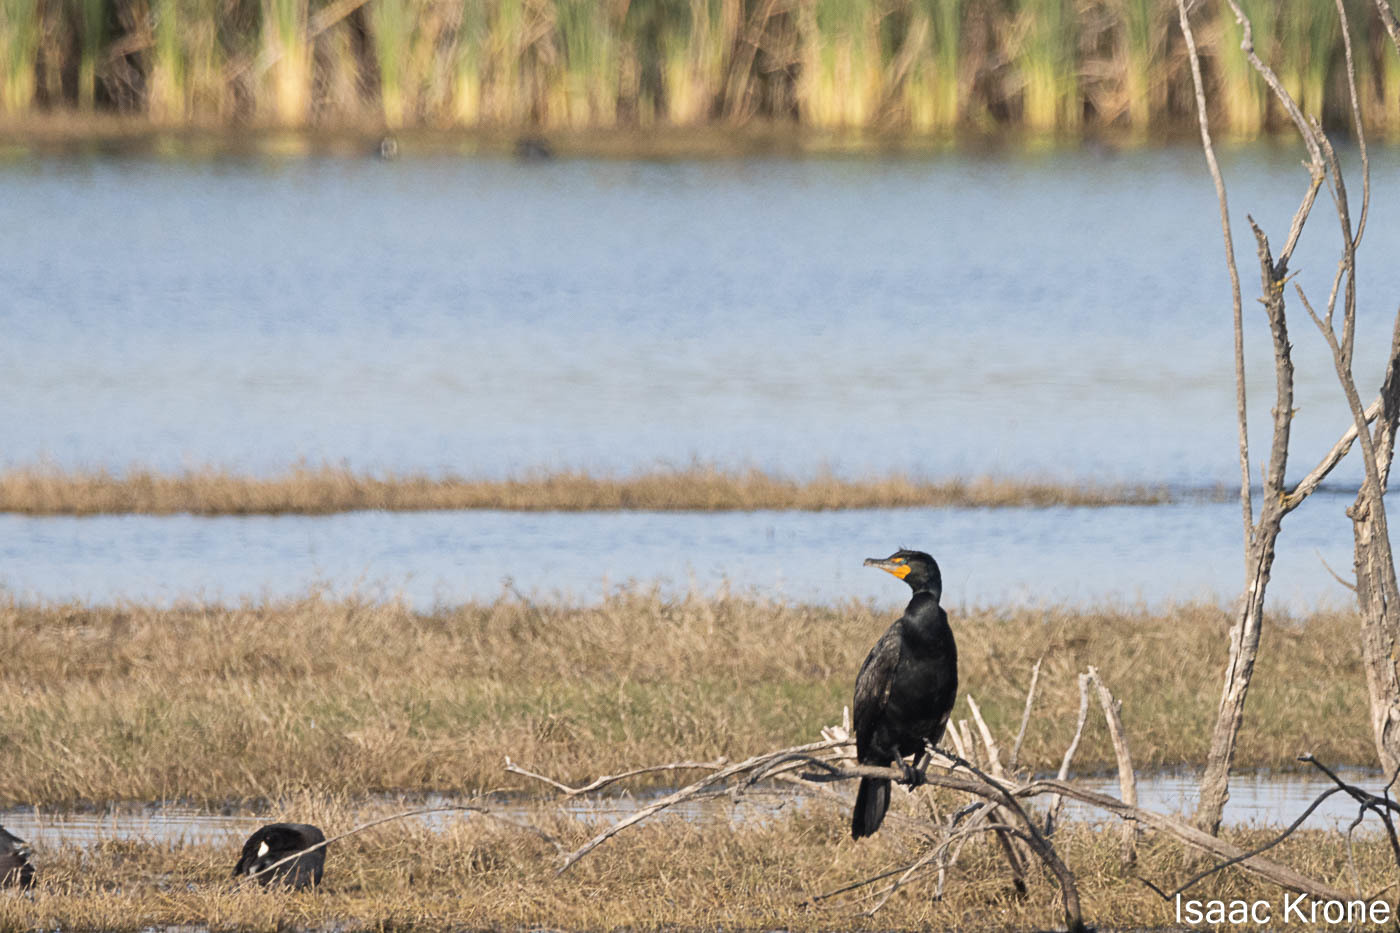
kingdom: Animalia
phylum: Chordata
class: Aves
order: Suliformes
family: Phalacrocoracidae
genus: Phalacrocorax
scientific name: Phalacrocorax auritus
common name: Double-crested cormorant
